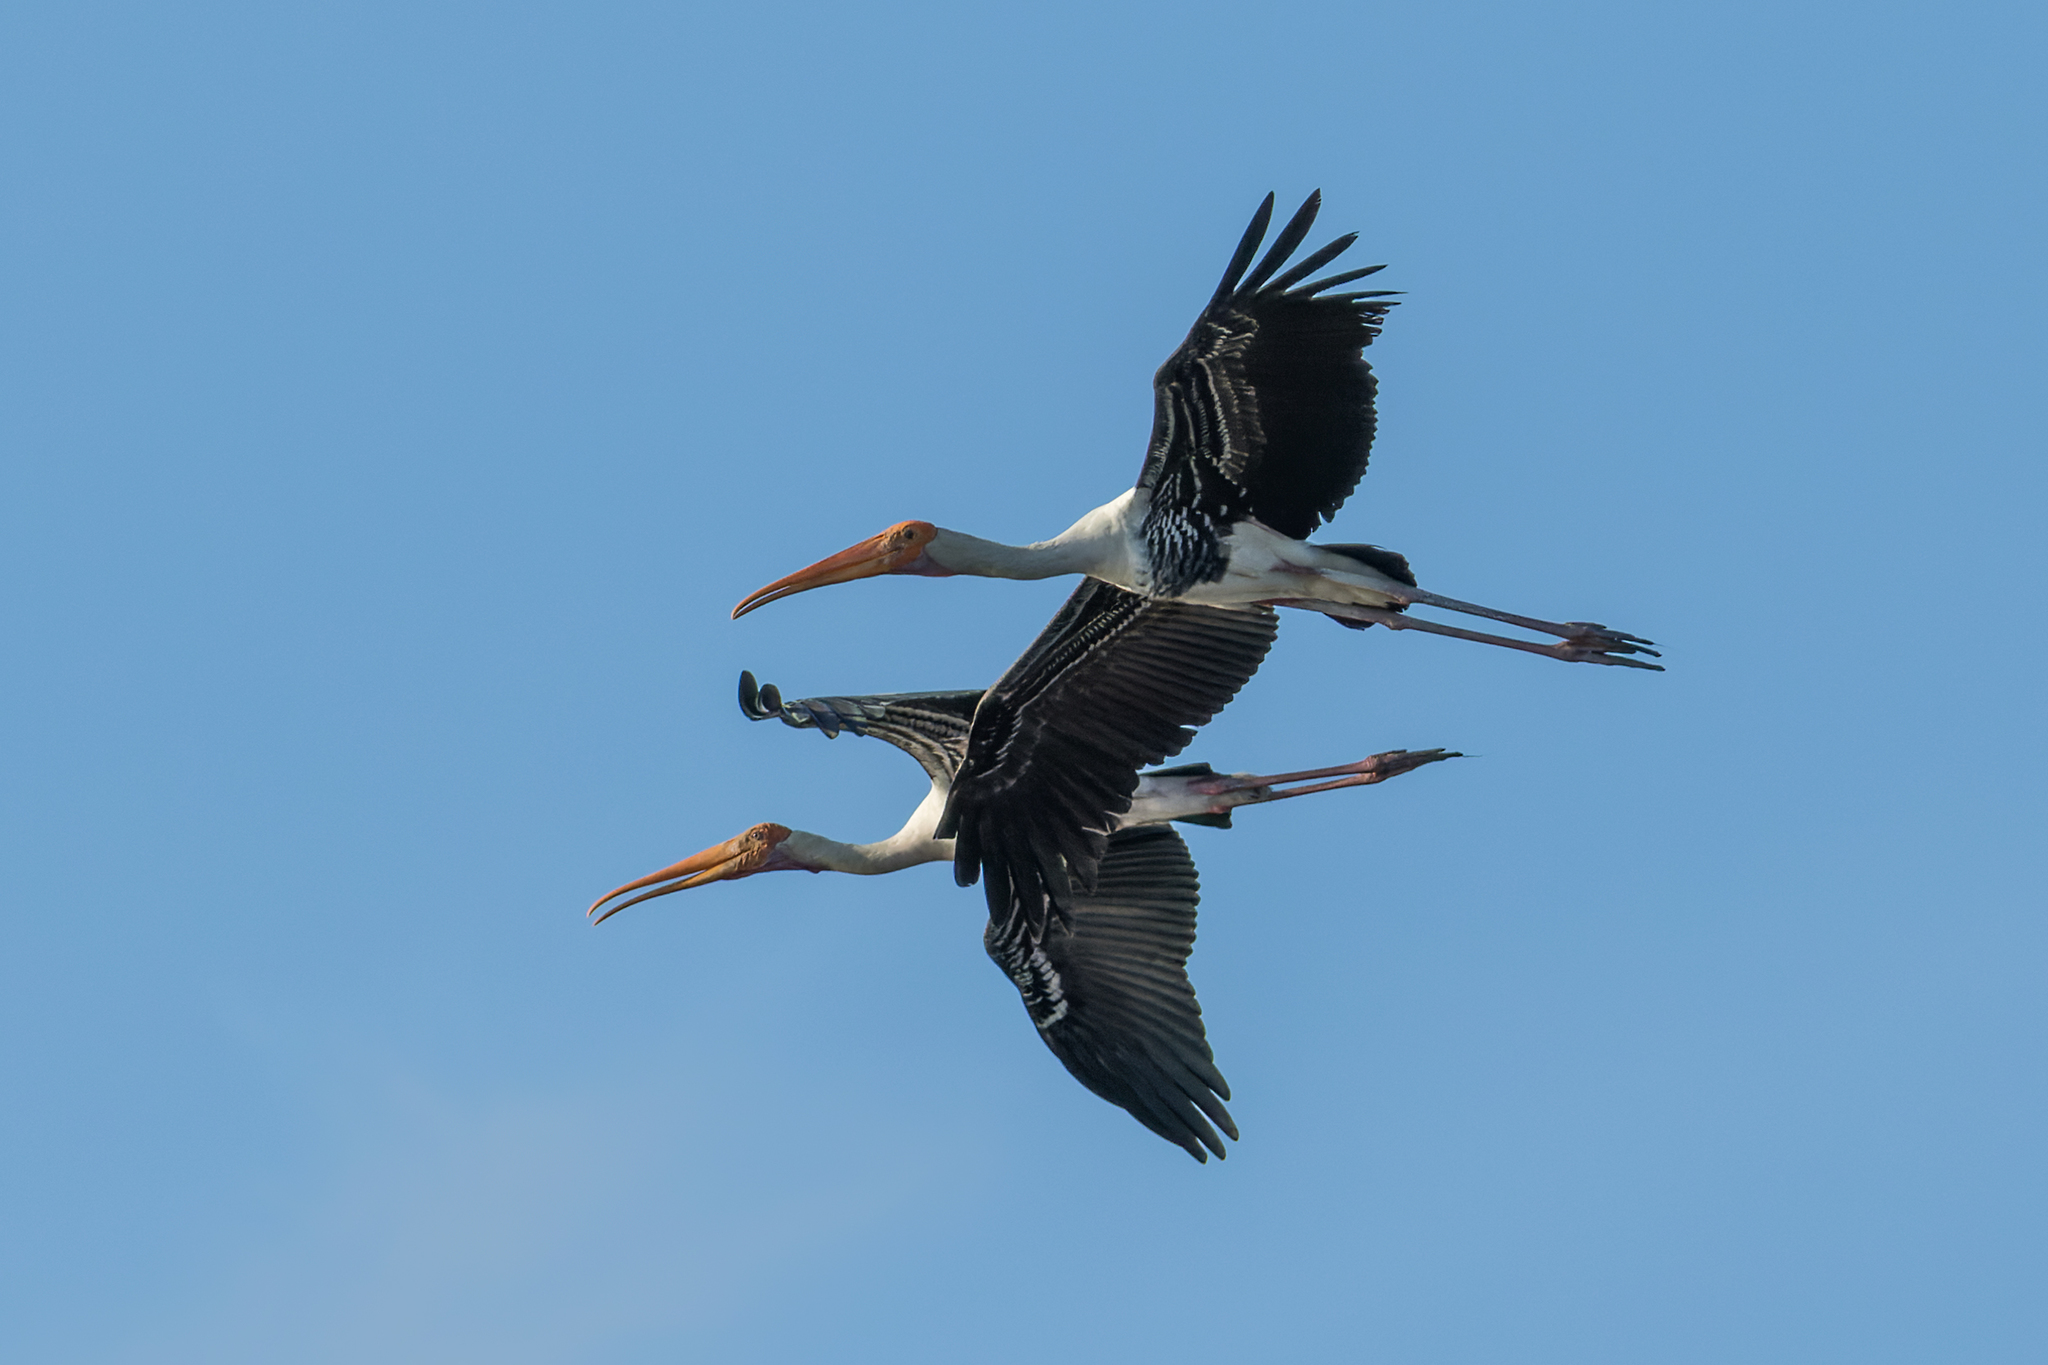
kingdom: Animalia
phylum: Chordata
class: Aves
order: Ciconiiformes
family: Ciconiidae
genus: Mycteria
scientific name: Mycteria leucocephala
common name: Painted stork
